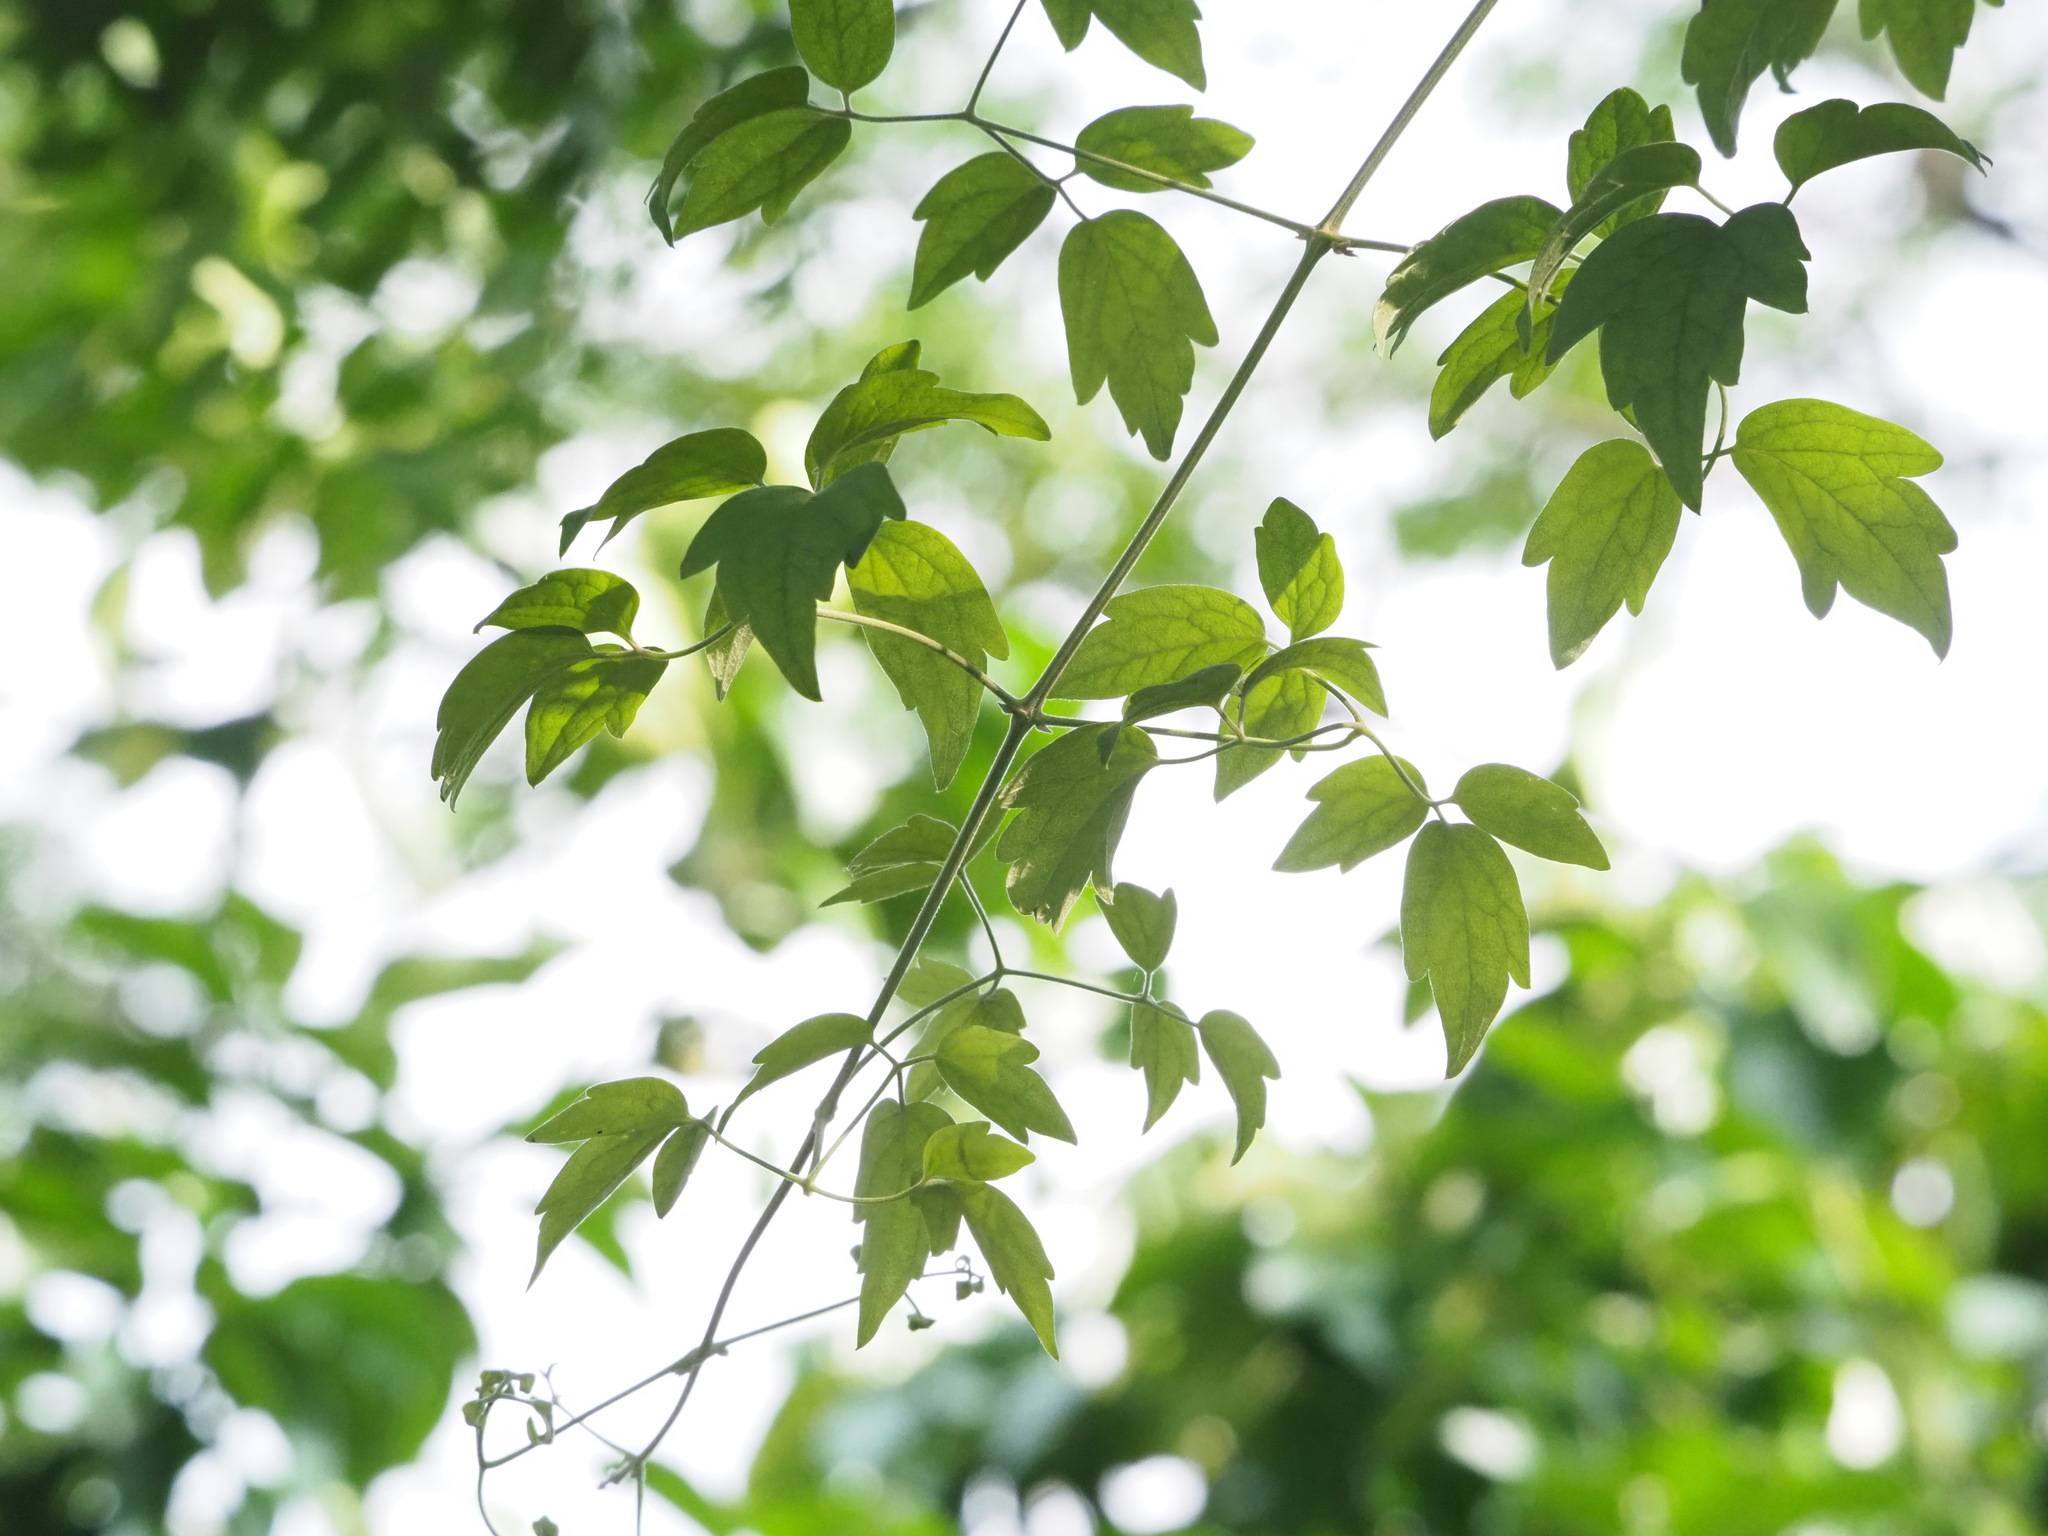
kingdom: Plantae
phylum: Tracheophyta
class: Magnoliopsida
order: Ranunculales
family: Ranunculaceae
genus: Clematis
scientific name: Clematis grata
